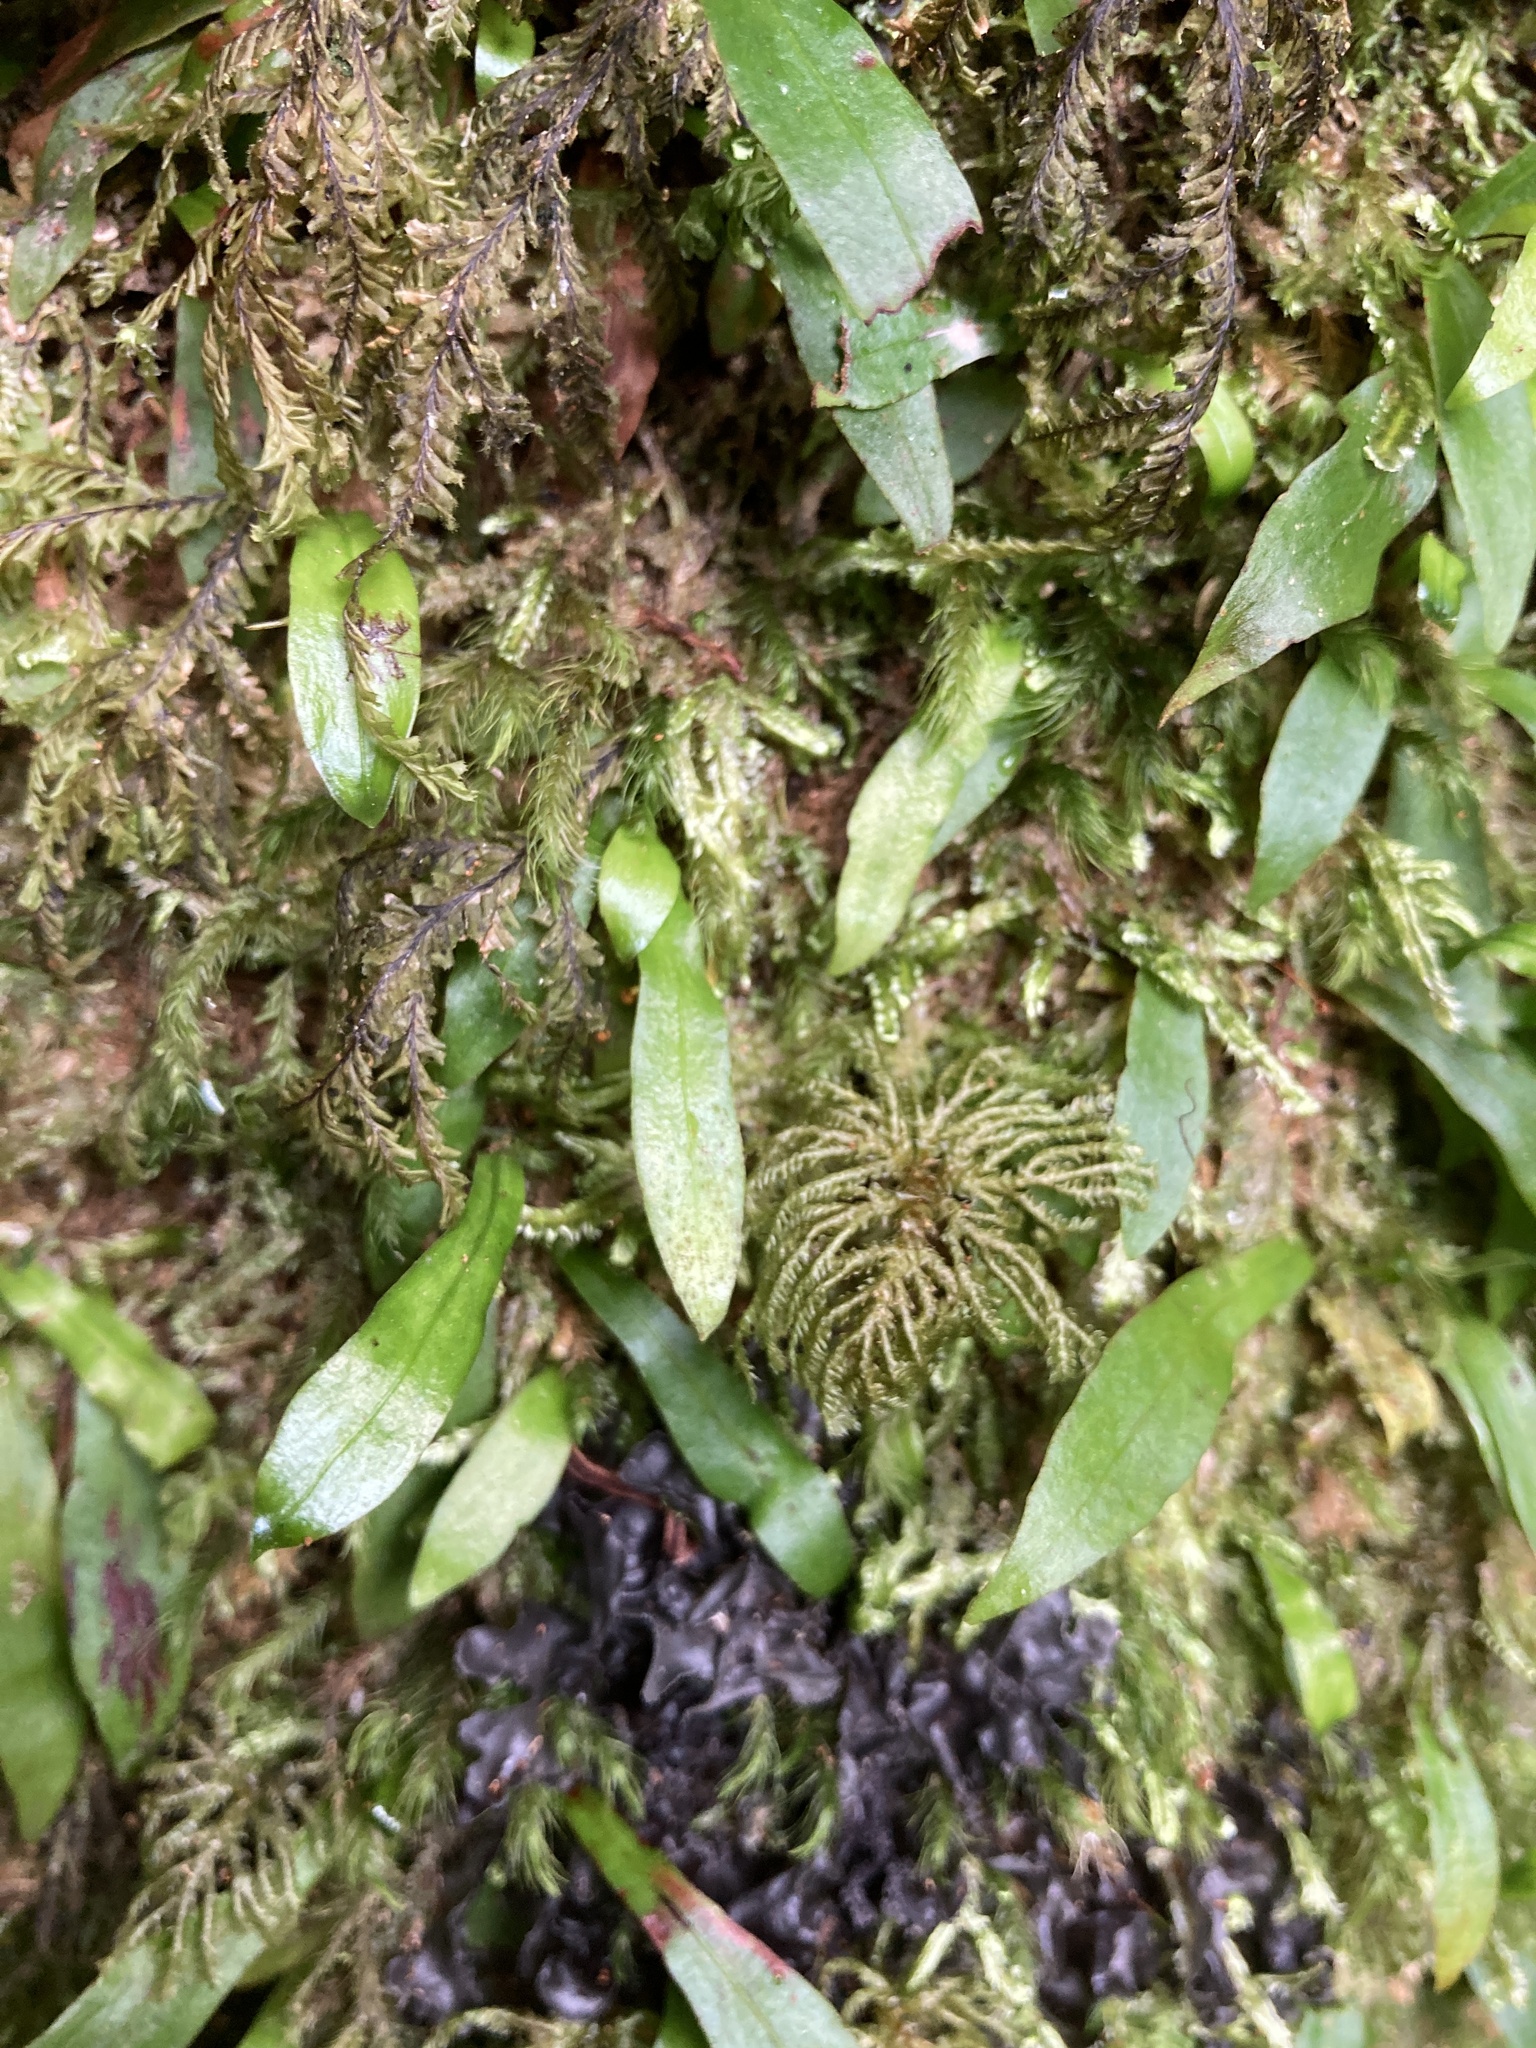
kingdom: Plantae
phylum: Tracheophyta
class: Polypodiopsida
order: Polypodiales
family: Polypodiaceae
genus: Loxogramme
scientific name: Loxogramme dictyopteris
